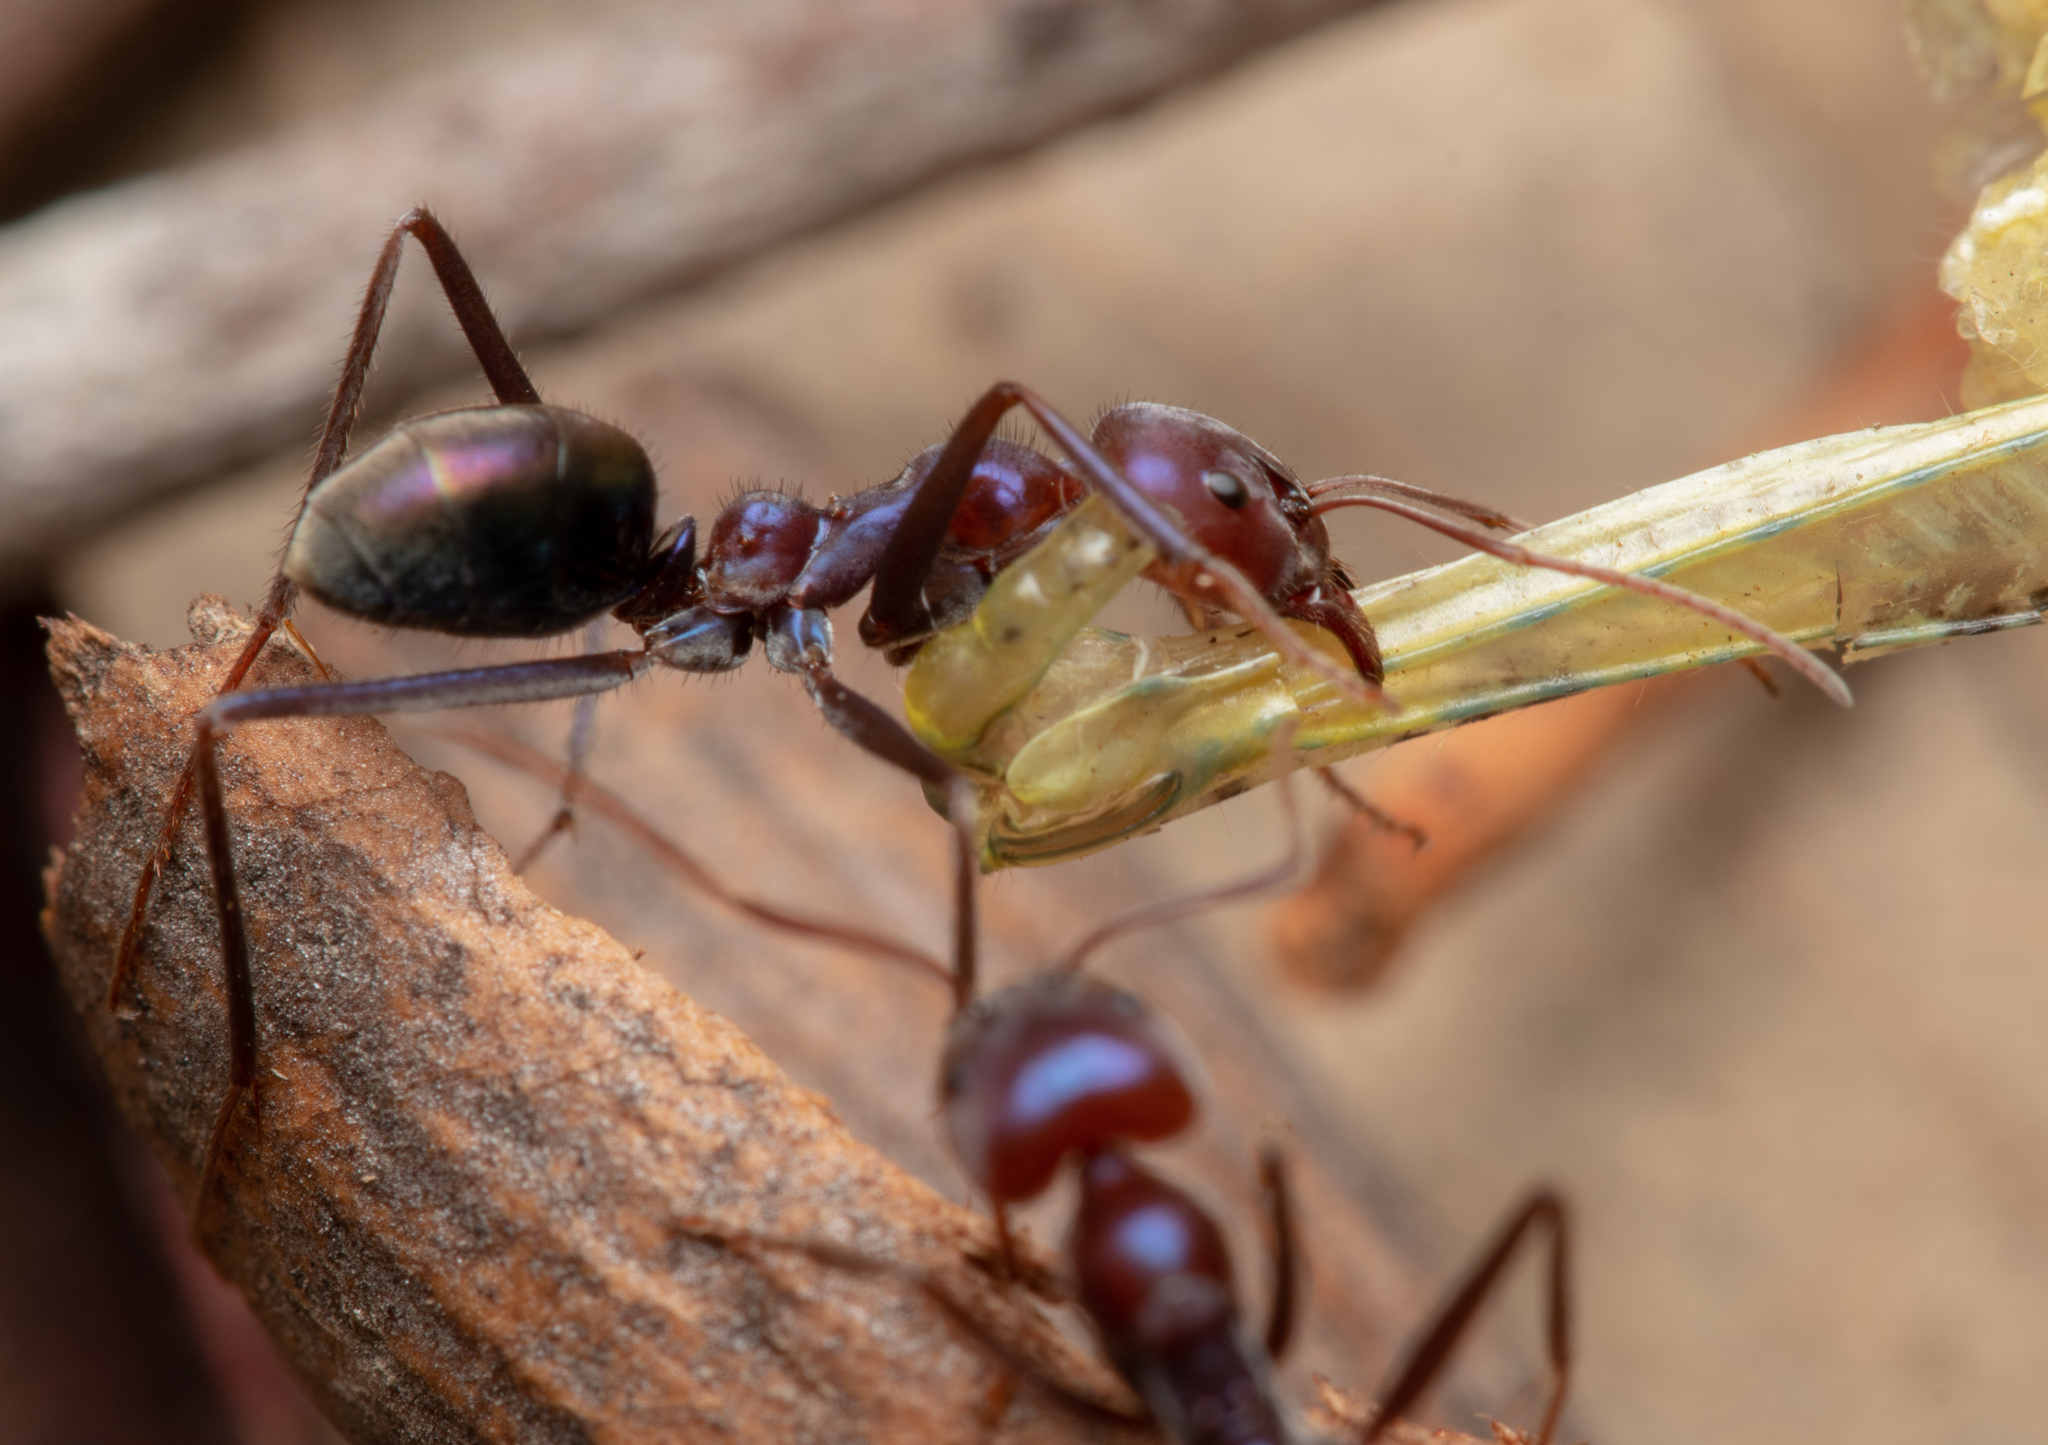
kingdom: Animalia
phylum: Arthropoda
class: Insecta
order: Hymenoptera
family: Formicidae
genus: Iridomyrmex
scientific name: Iridomyrmex purpureus
